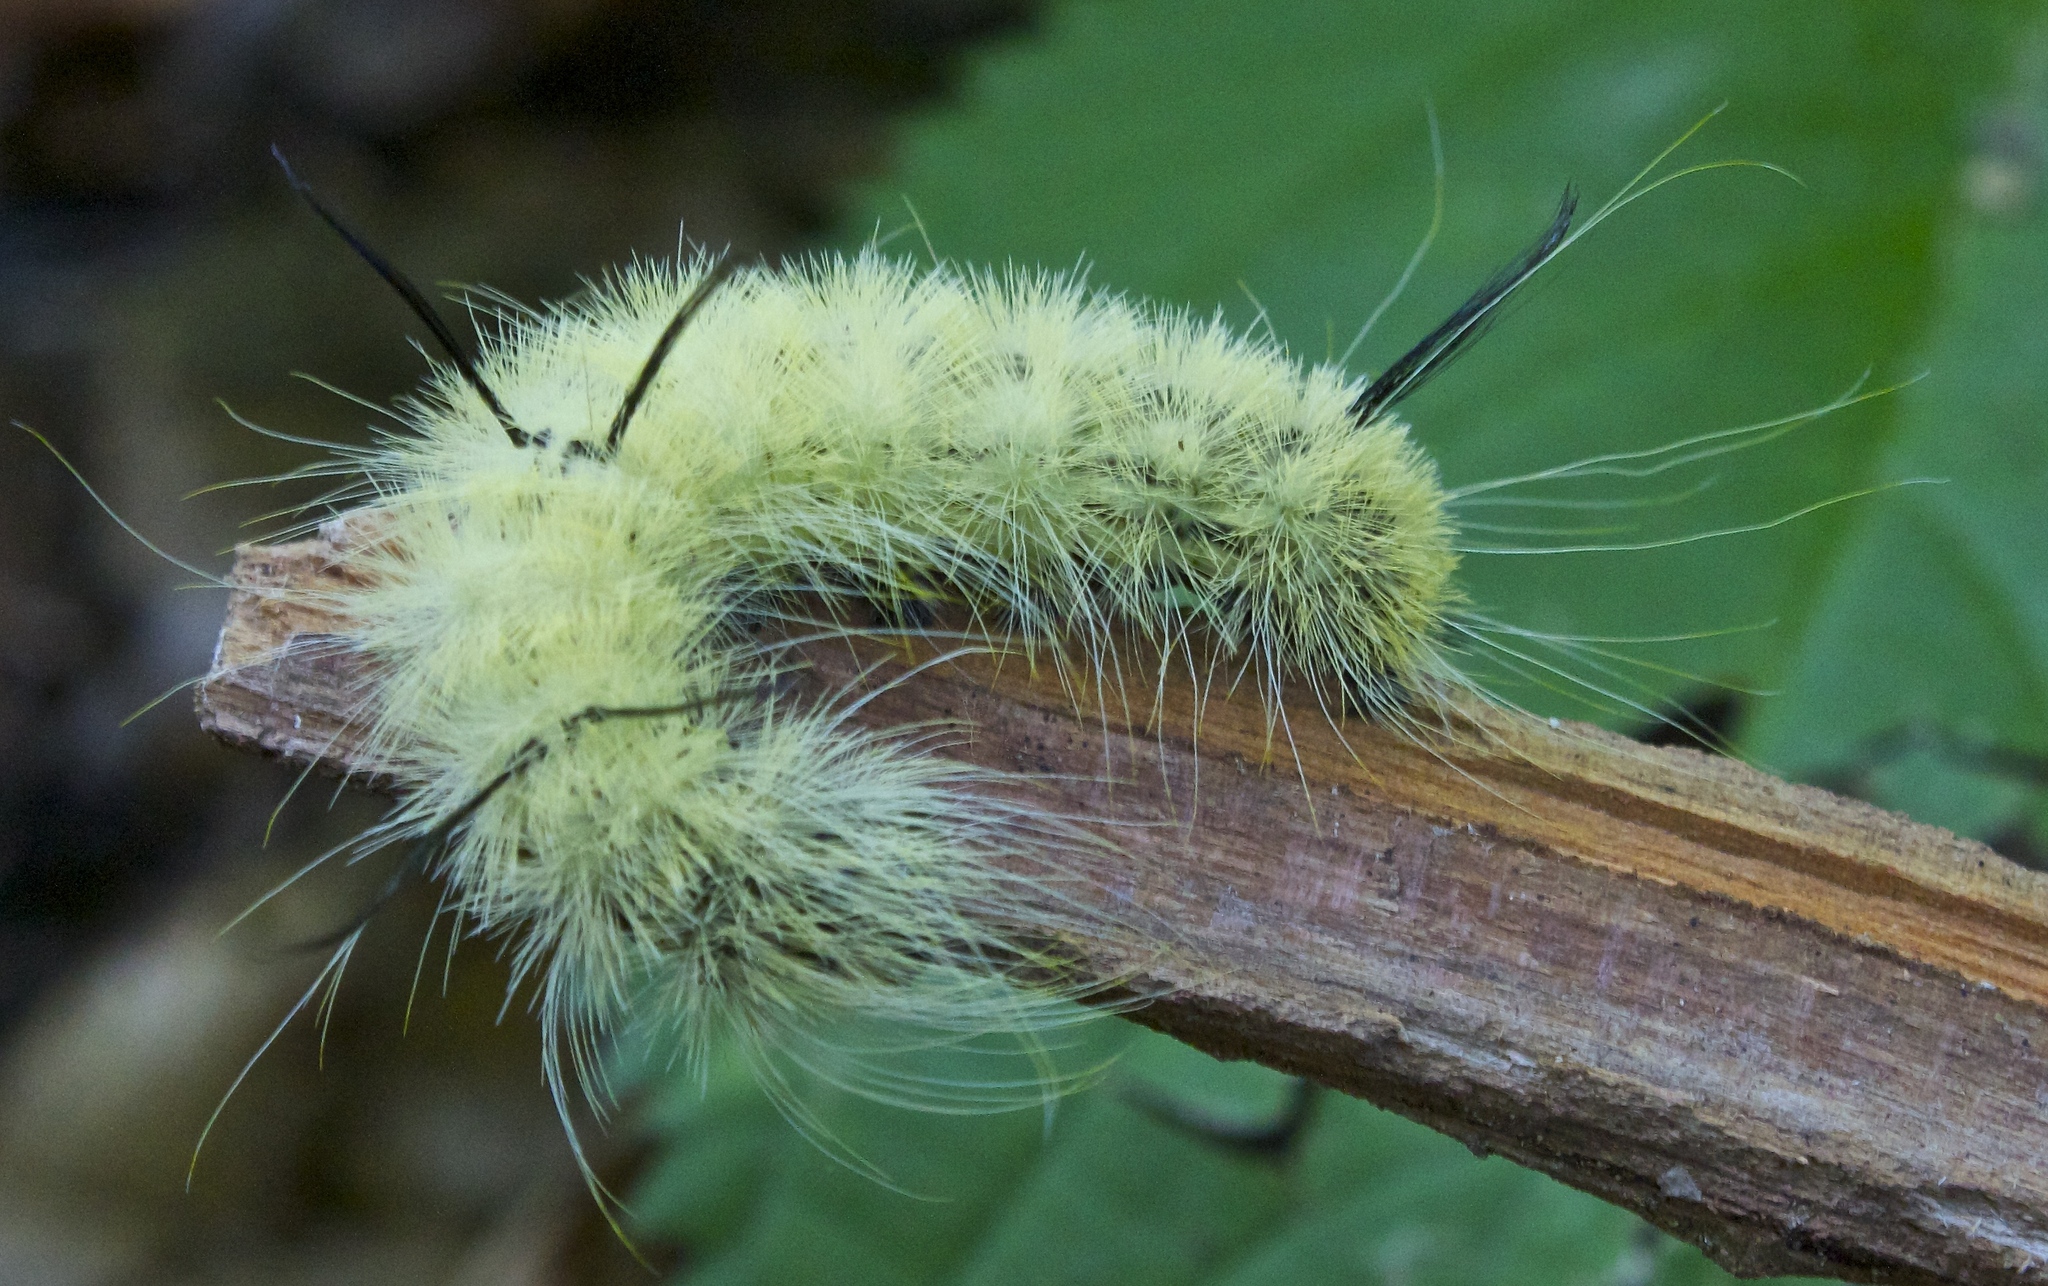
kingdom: Animalia
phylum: Arthropoda
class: Insecta
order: Lepidoptera
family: Noctuidae
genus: Acronicta
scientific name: Acronicta americana
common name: American dagger
